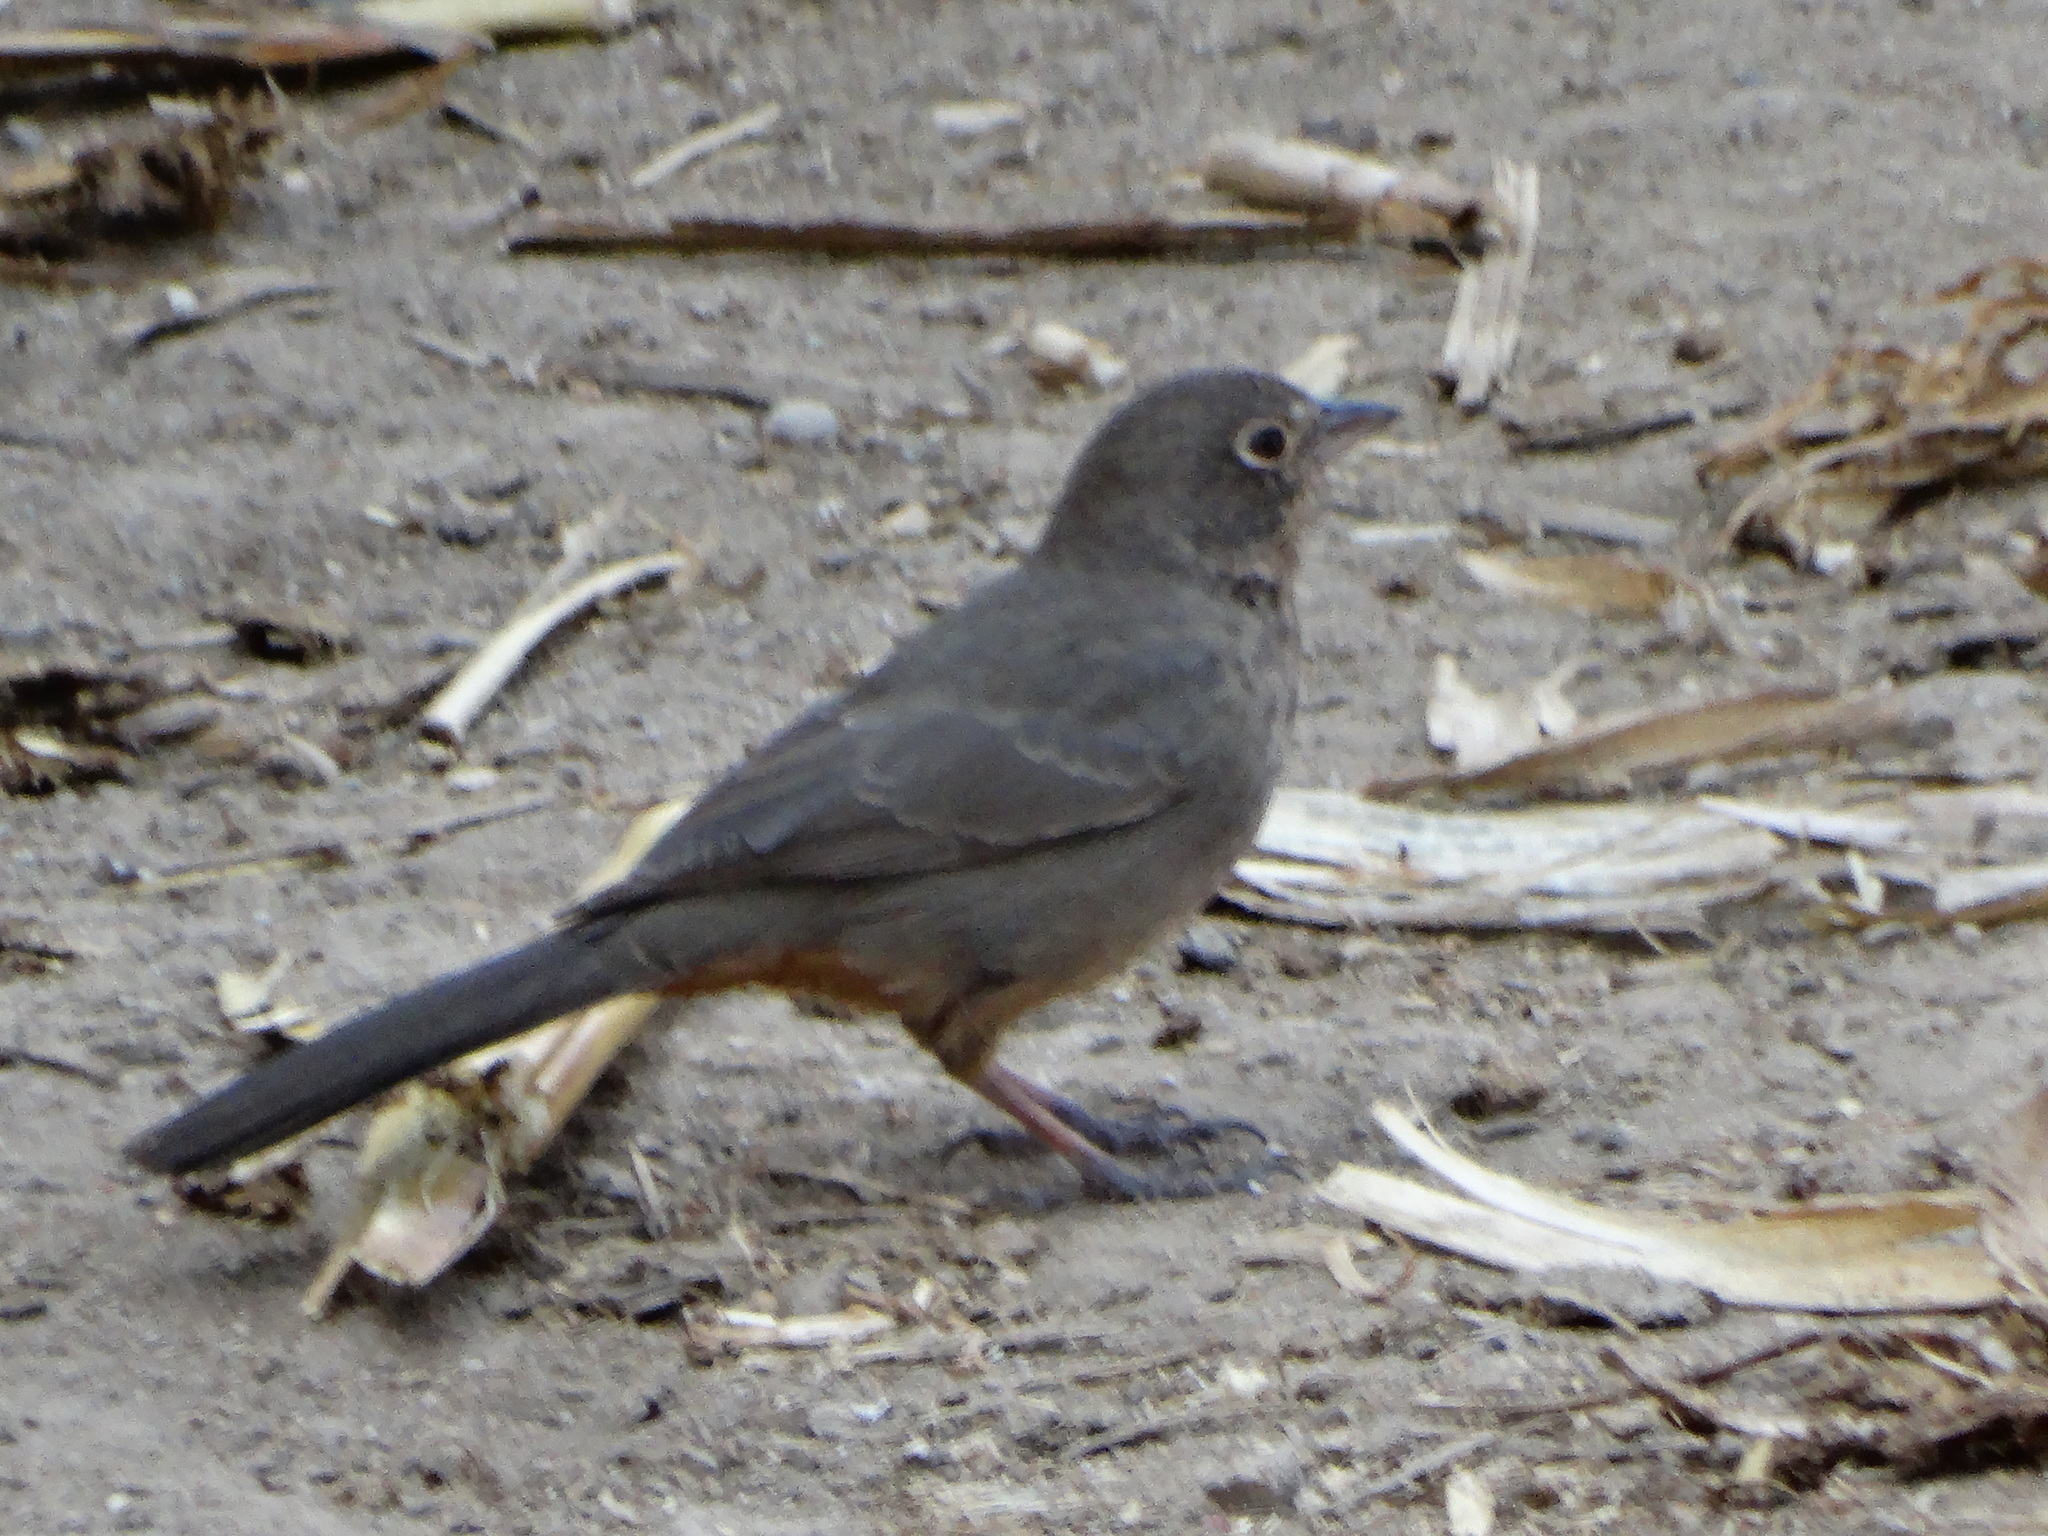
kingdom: Animalia
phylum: Chordata
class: Aves
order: Passeriformes
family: Passerellidae
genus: Melozone
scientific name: Melozone fusca
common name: Canyon towhee
